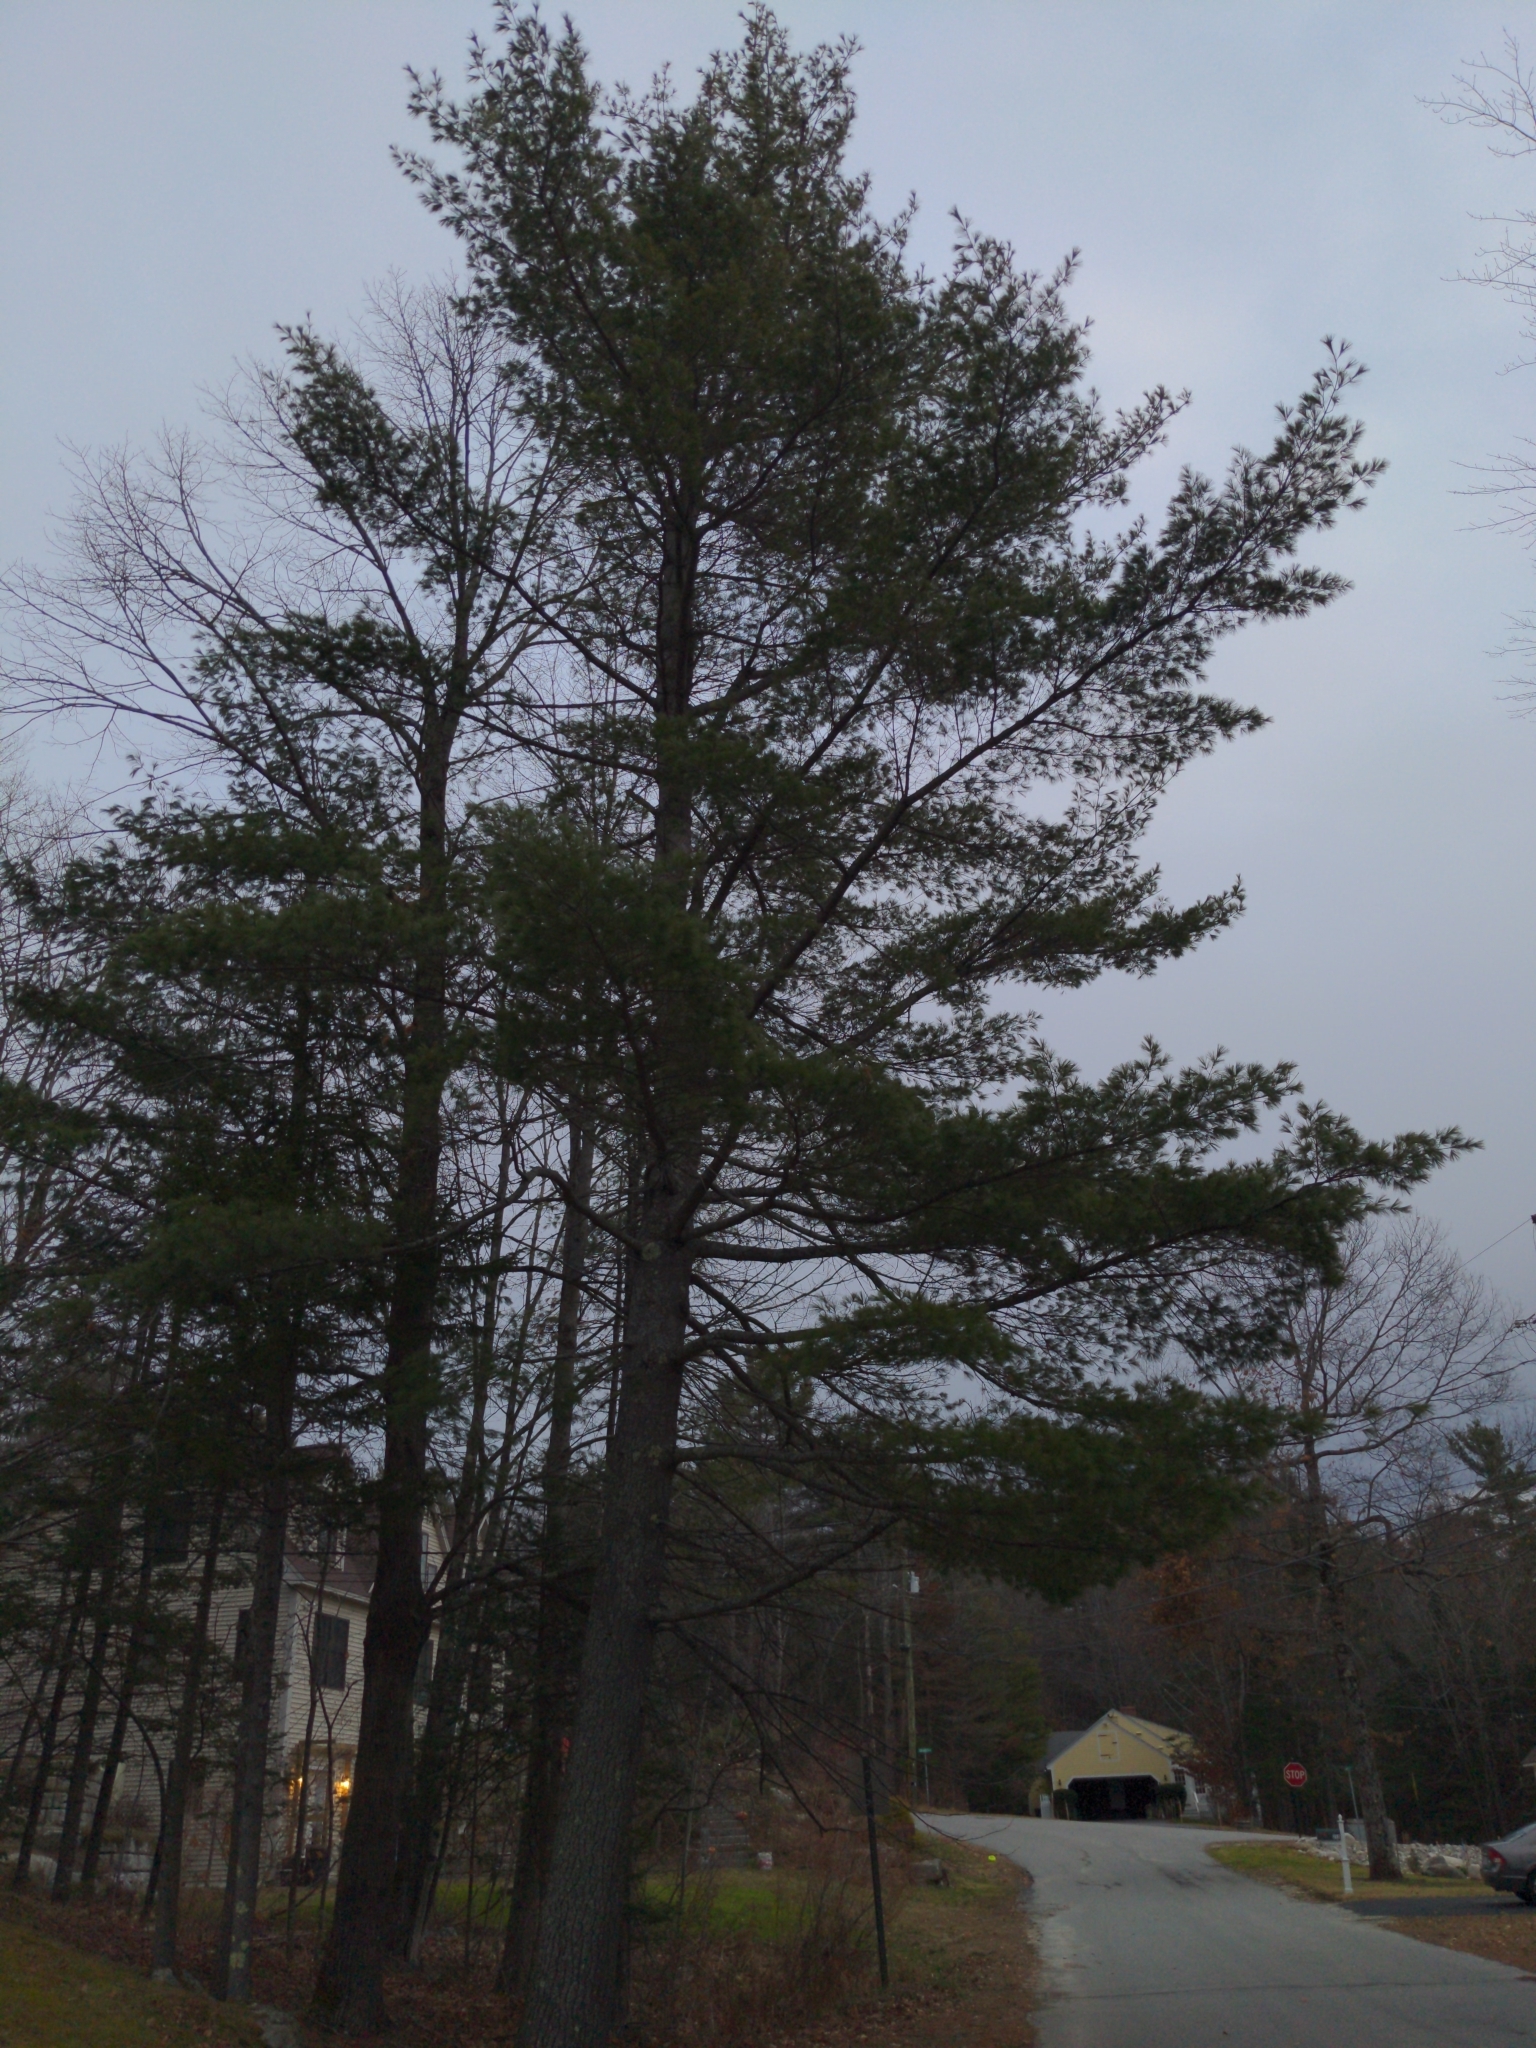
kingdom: Plantae
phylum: Tracheophyta
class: Pinopsida
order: Pinales
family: Pinaceae
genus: Pinus
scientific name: Pinus strobus
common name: Weymouth pine
